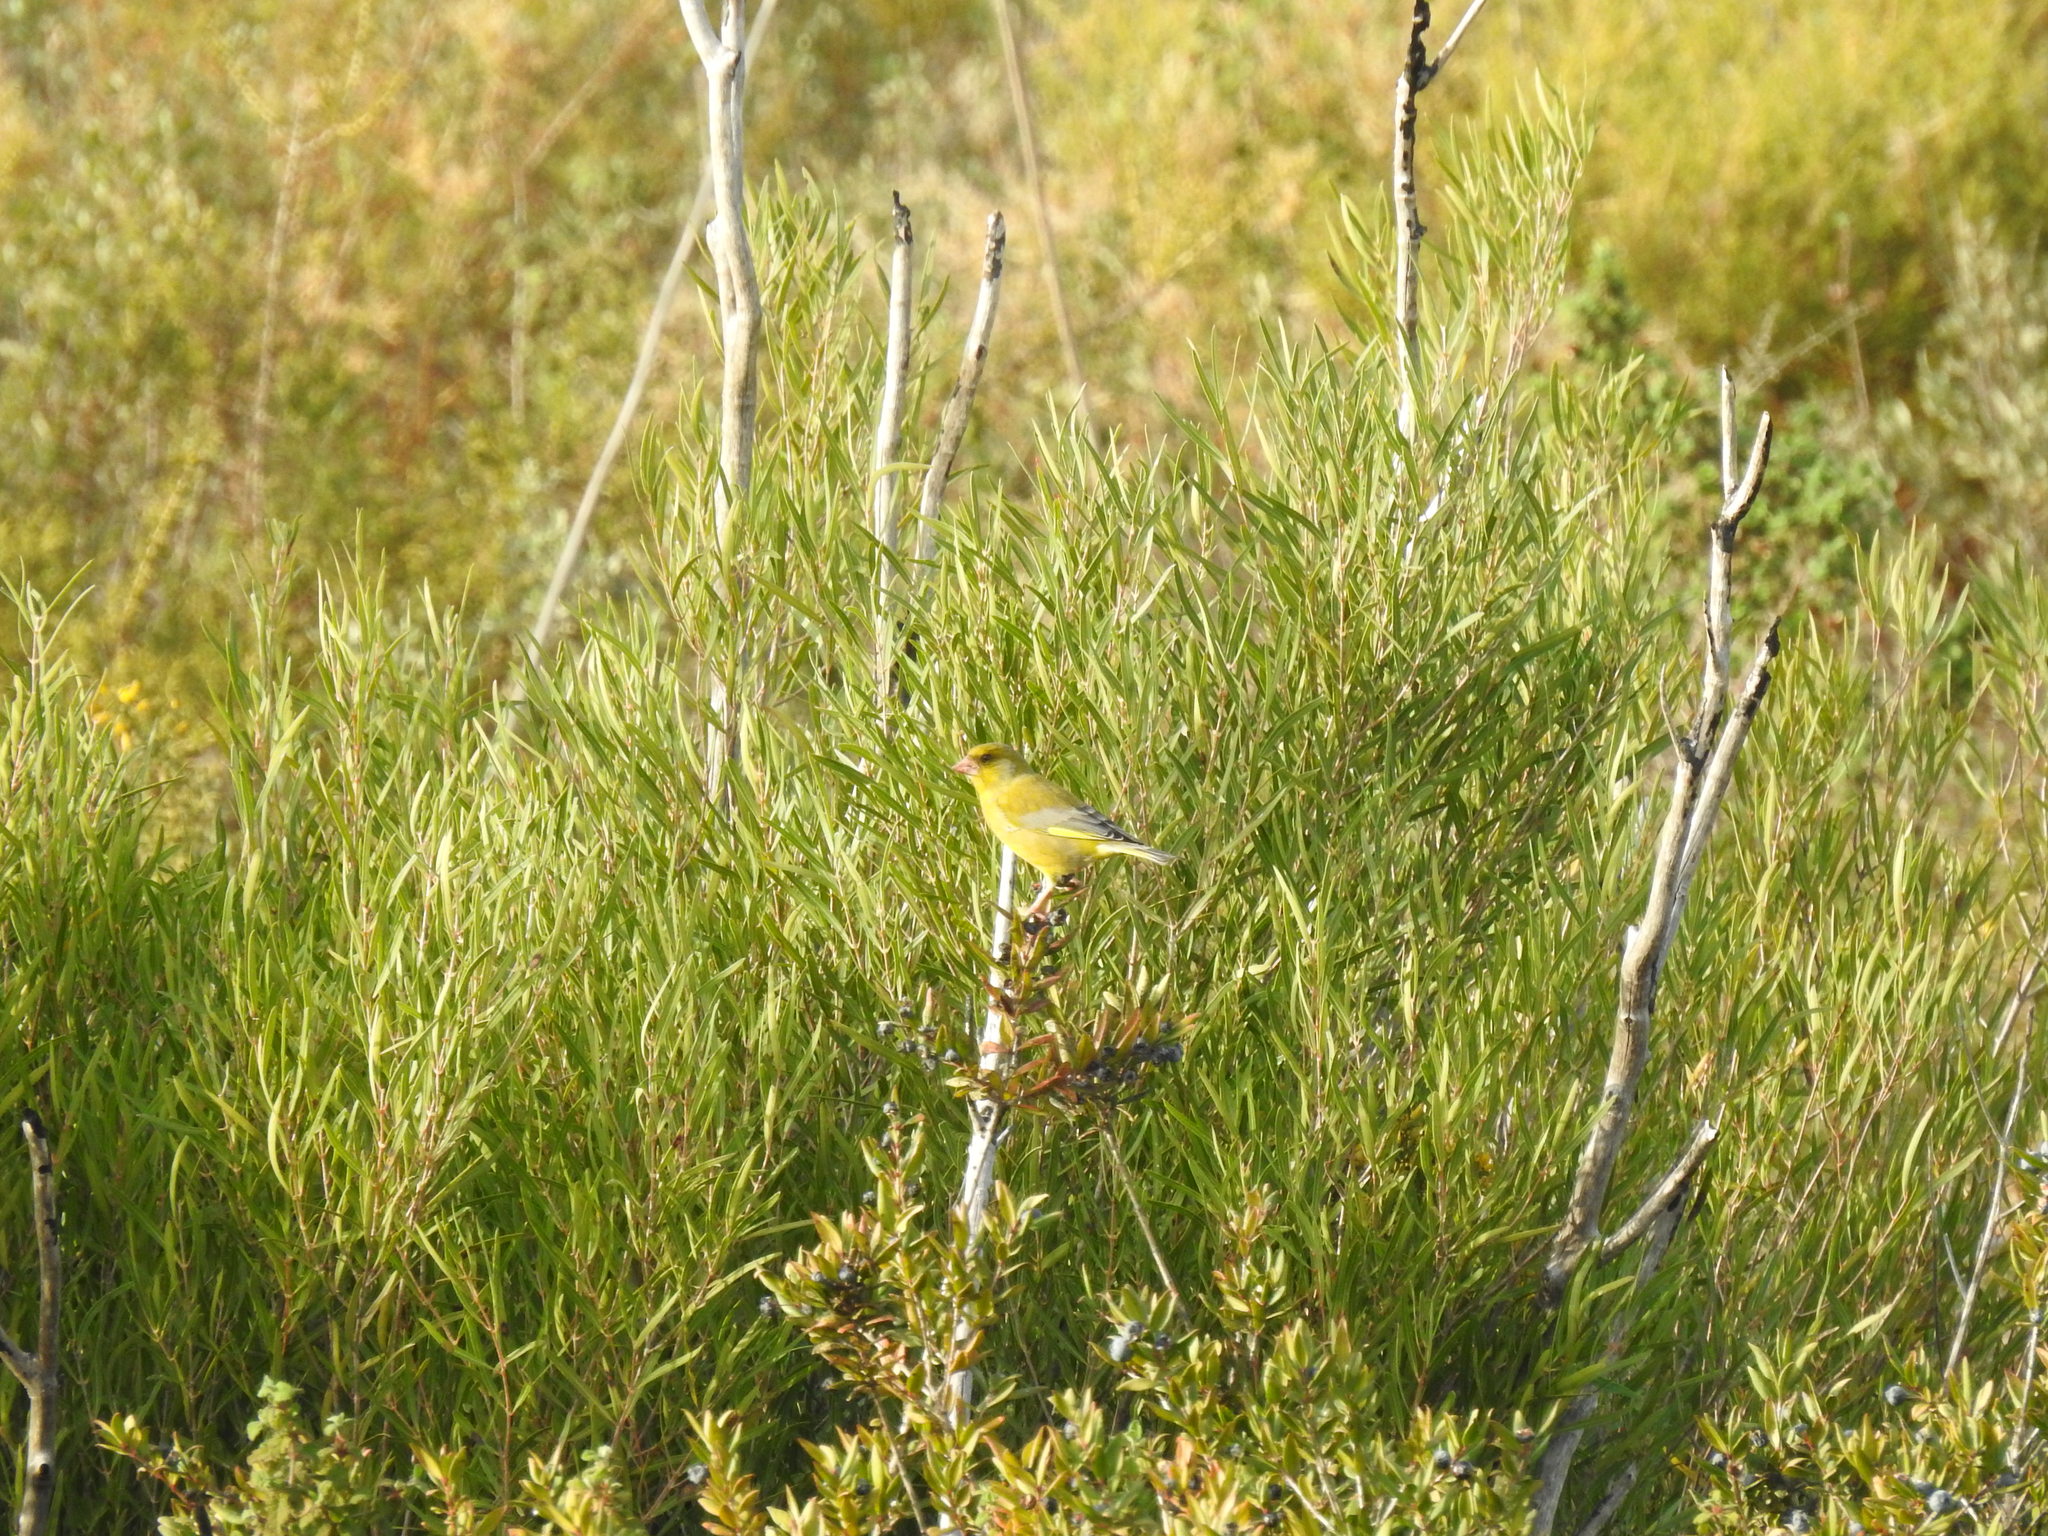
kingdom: Plantae
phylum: Tracheophyta
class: Liliopsida
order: Poales
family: Poaceae
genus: Chloris
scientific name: Chloris chloris
